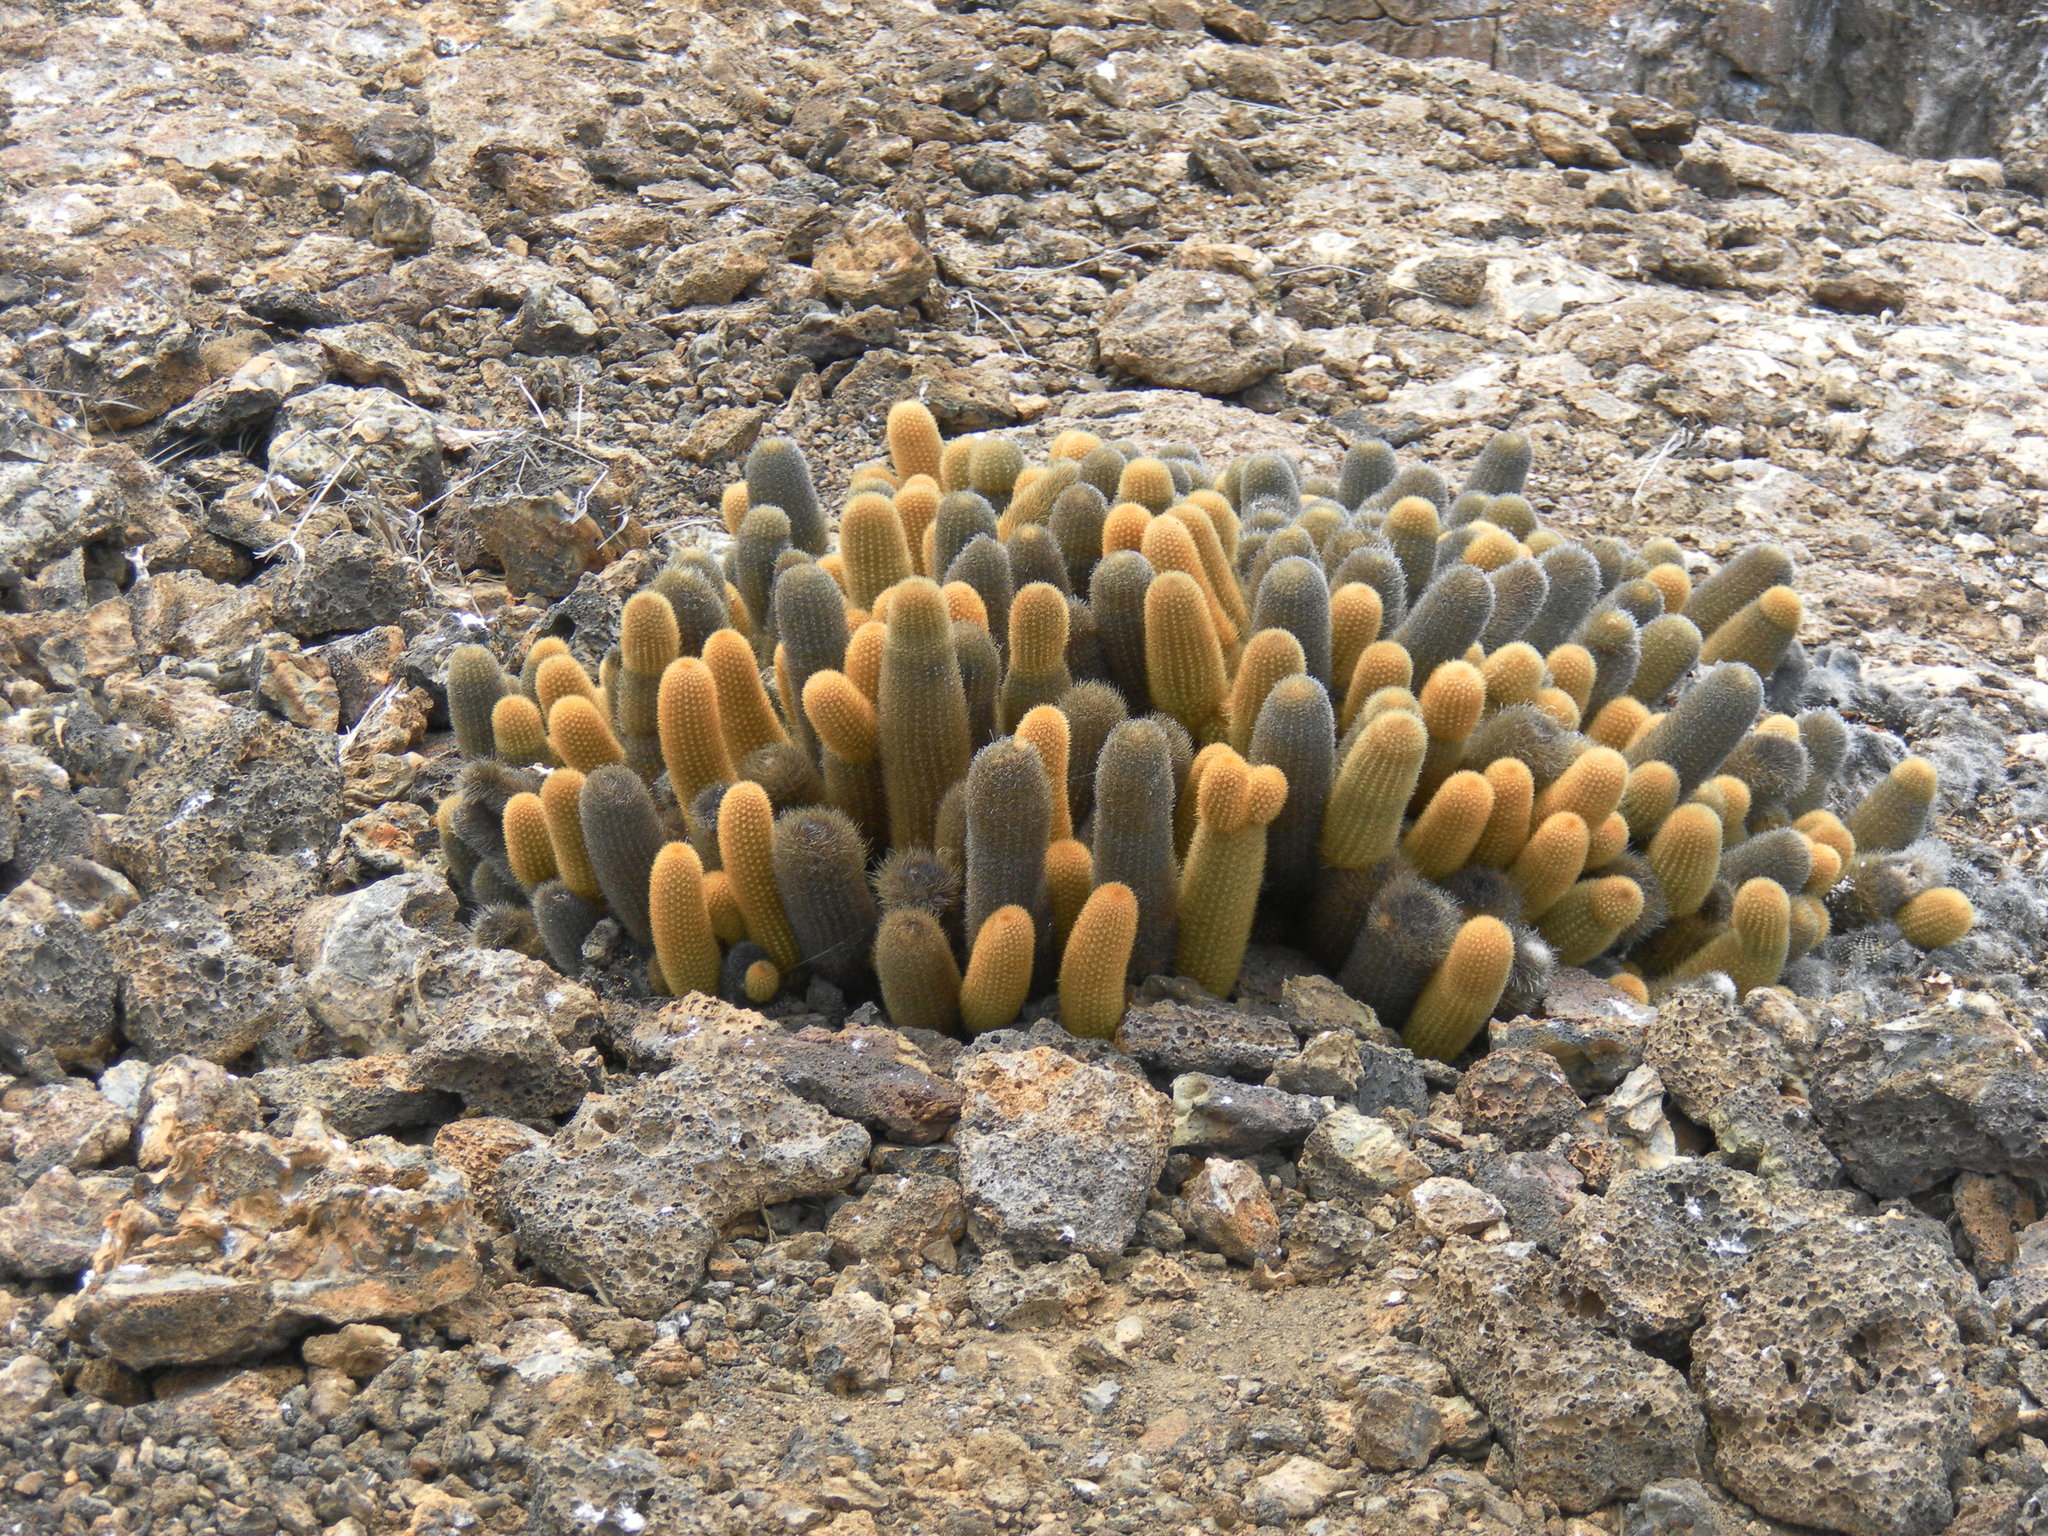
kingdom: Plantae
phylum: Tracheophyta
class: Magnoliopsida
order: Caryophyllales
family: Cactaceae
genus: Brachycereus
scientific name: Brachycereus nesioticus
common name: Lava cactus
